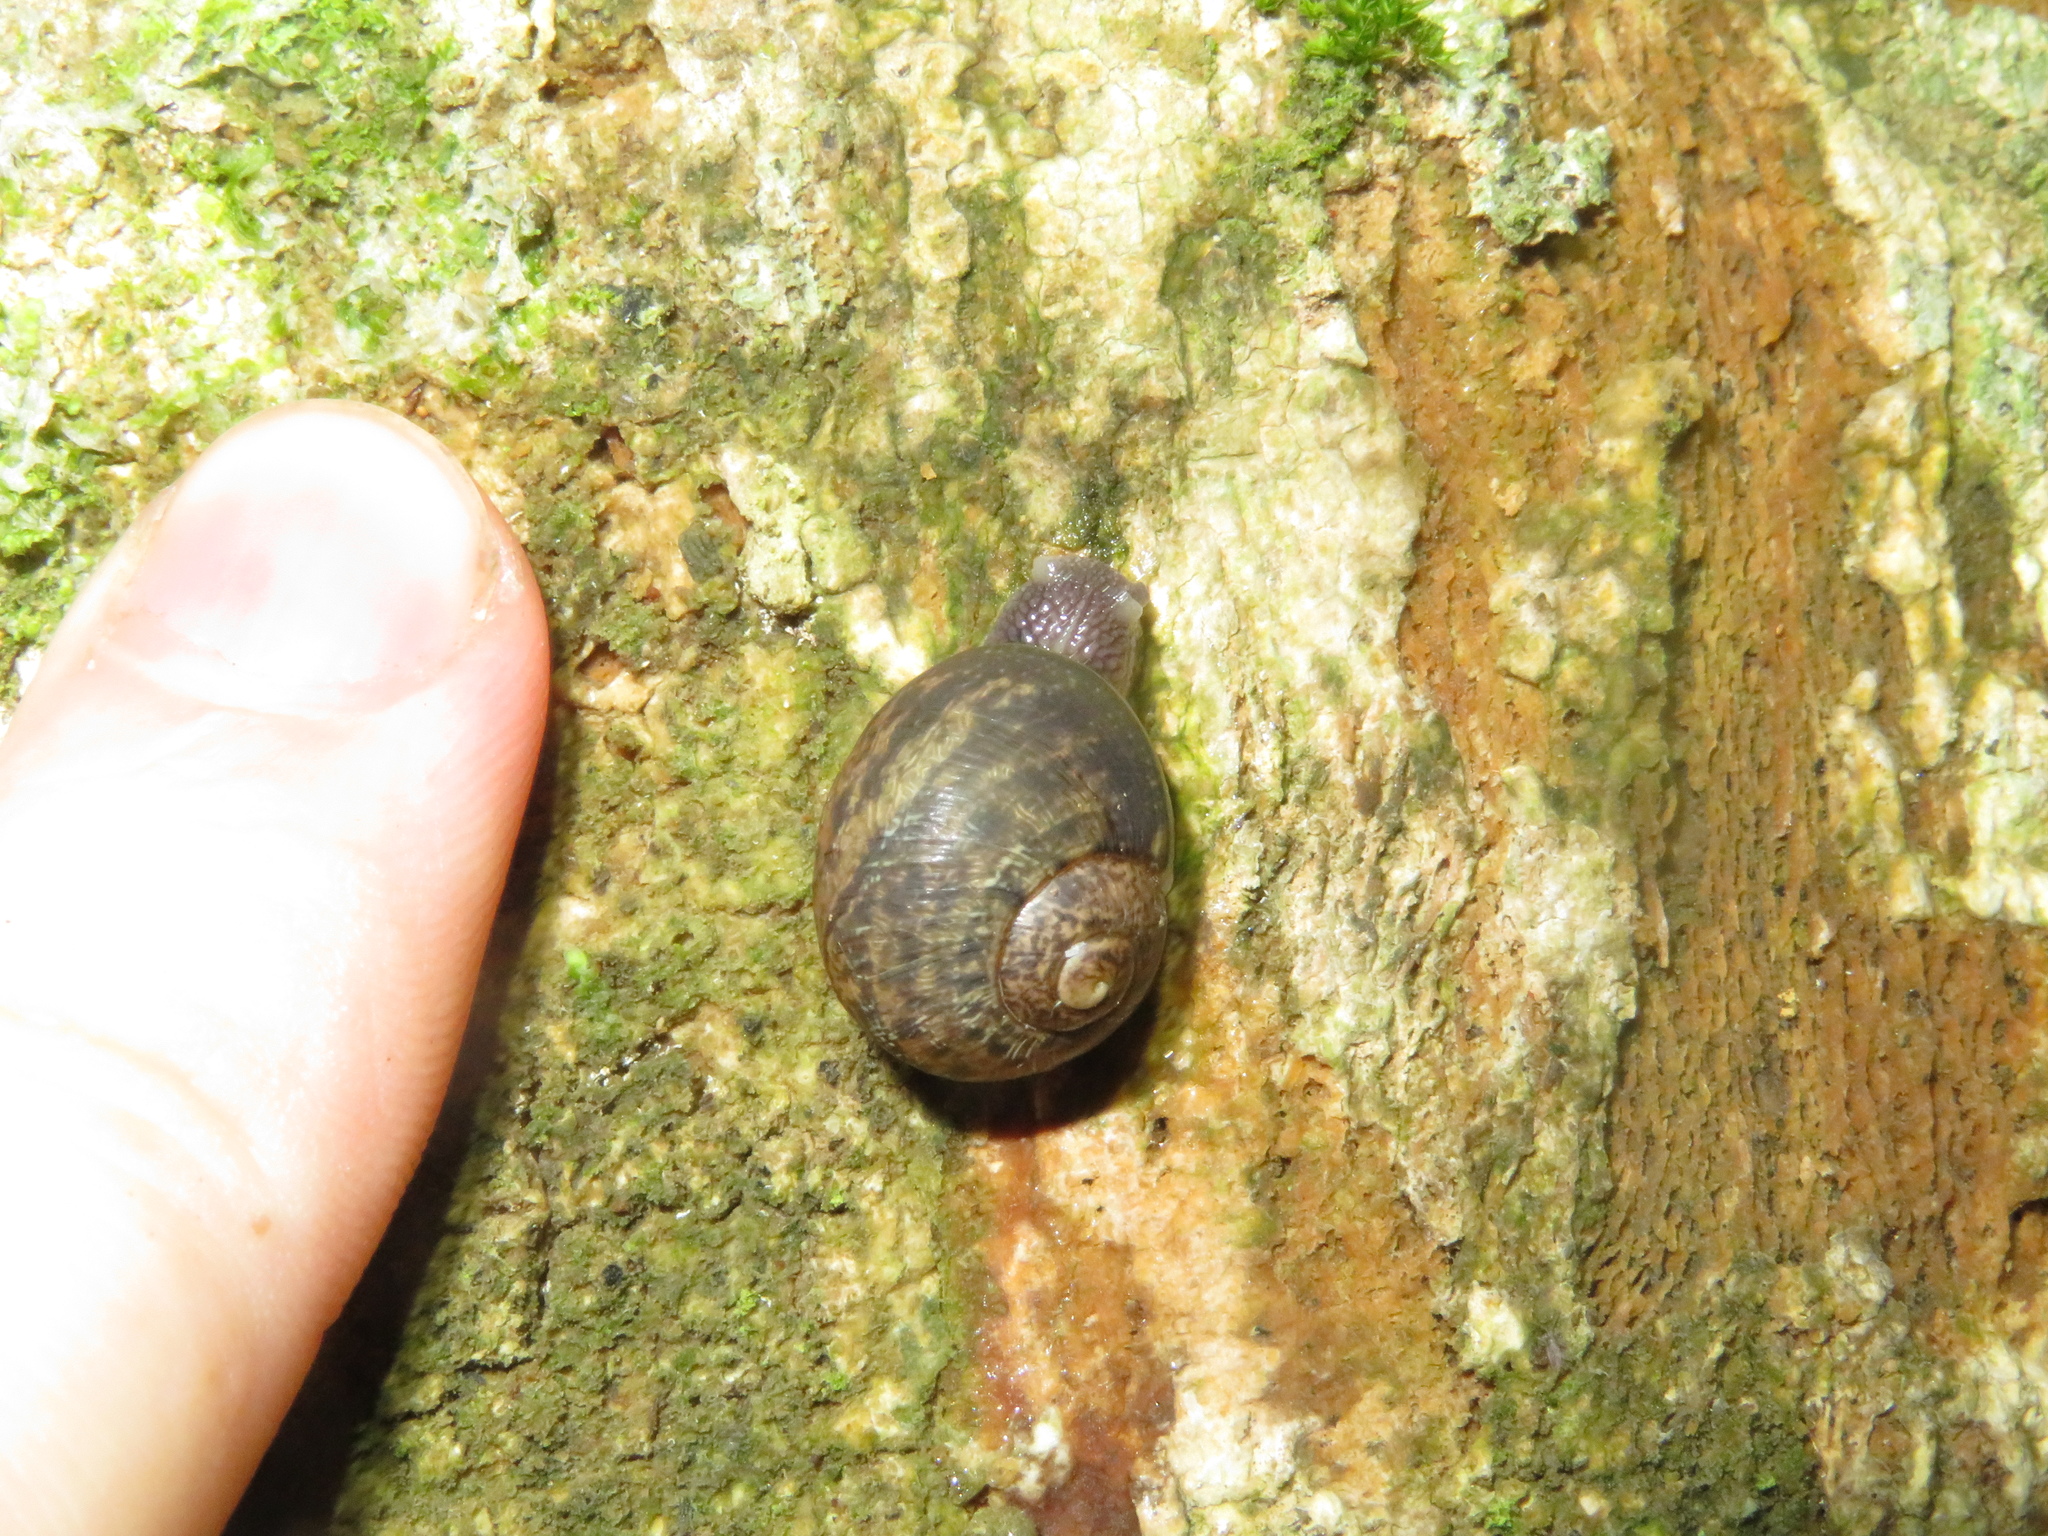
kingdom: Animalia
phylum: Mollusca
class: Gastropoda
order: Stylommatophora
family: Helicidae
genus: Cornu
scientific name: Cornu aspersum
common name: Brown garden snail
